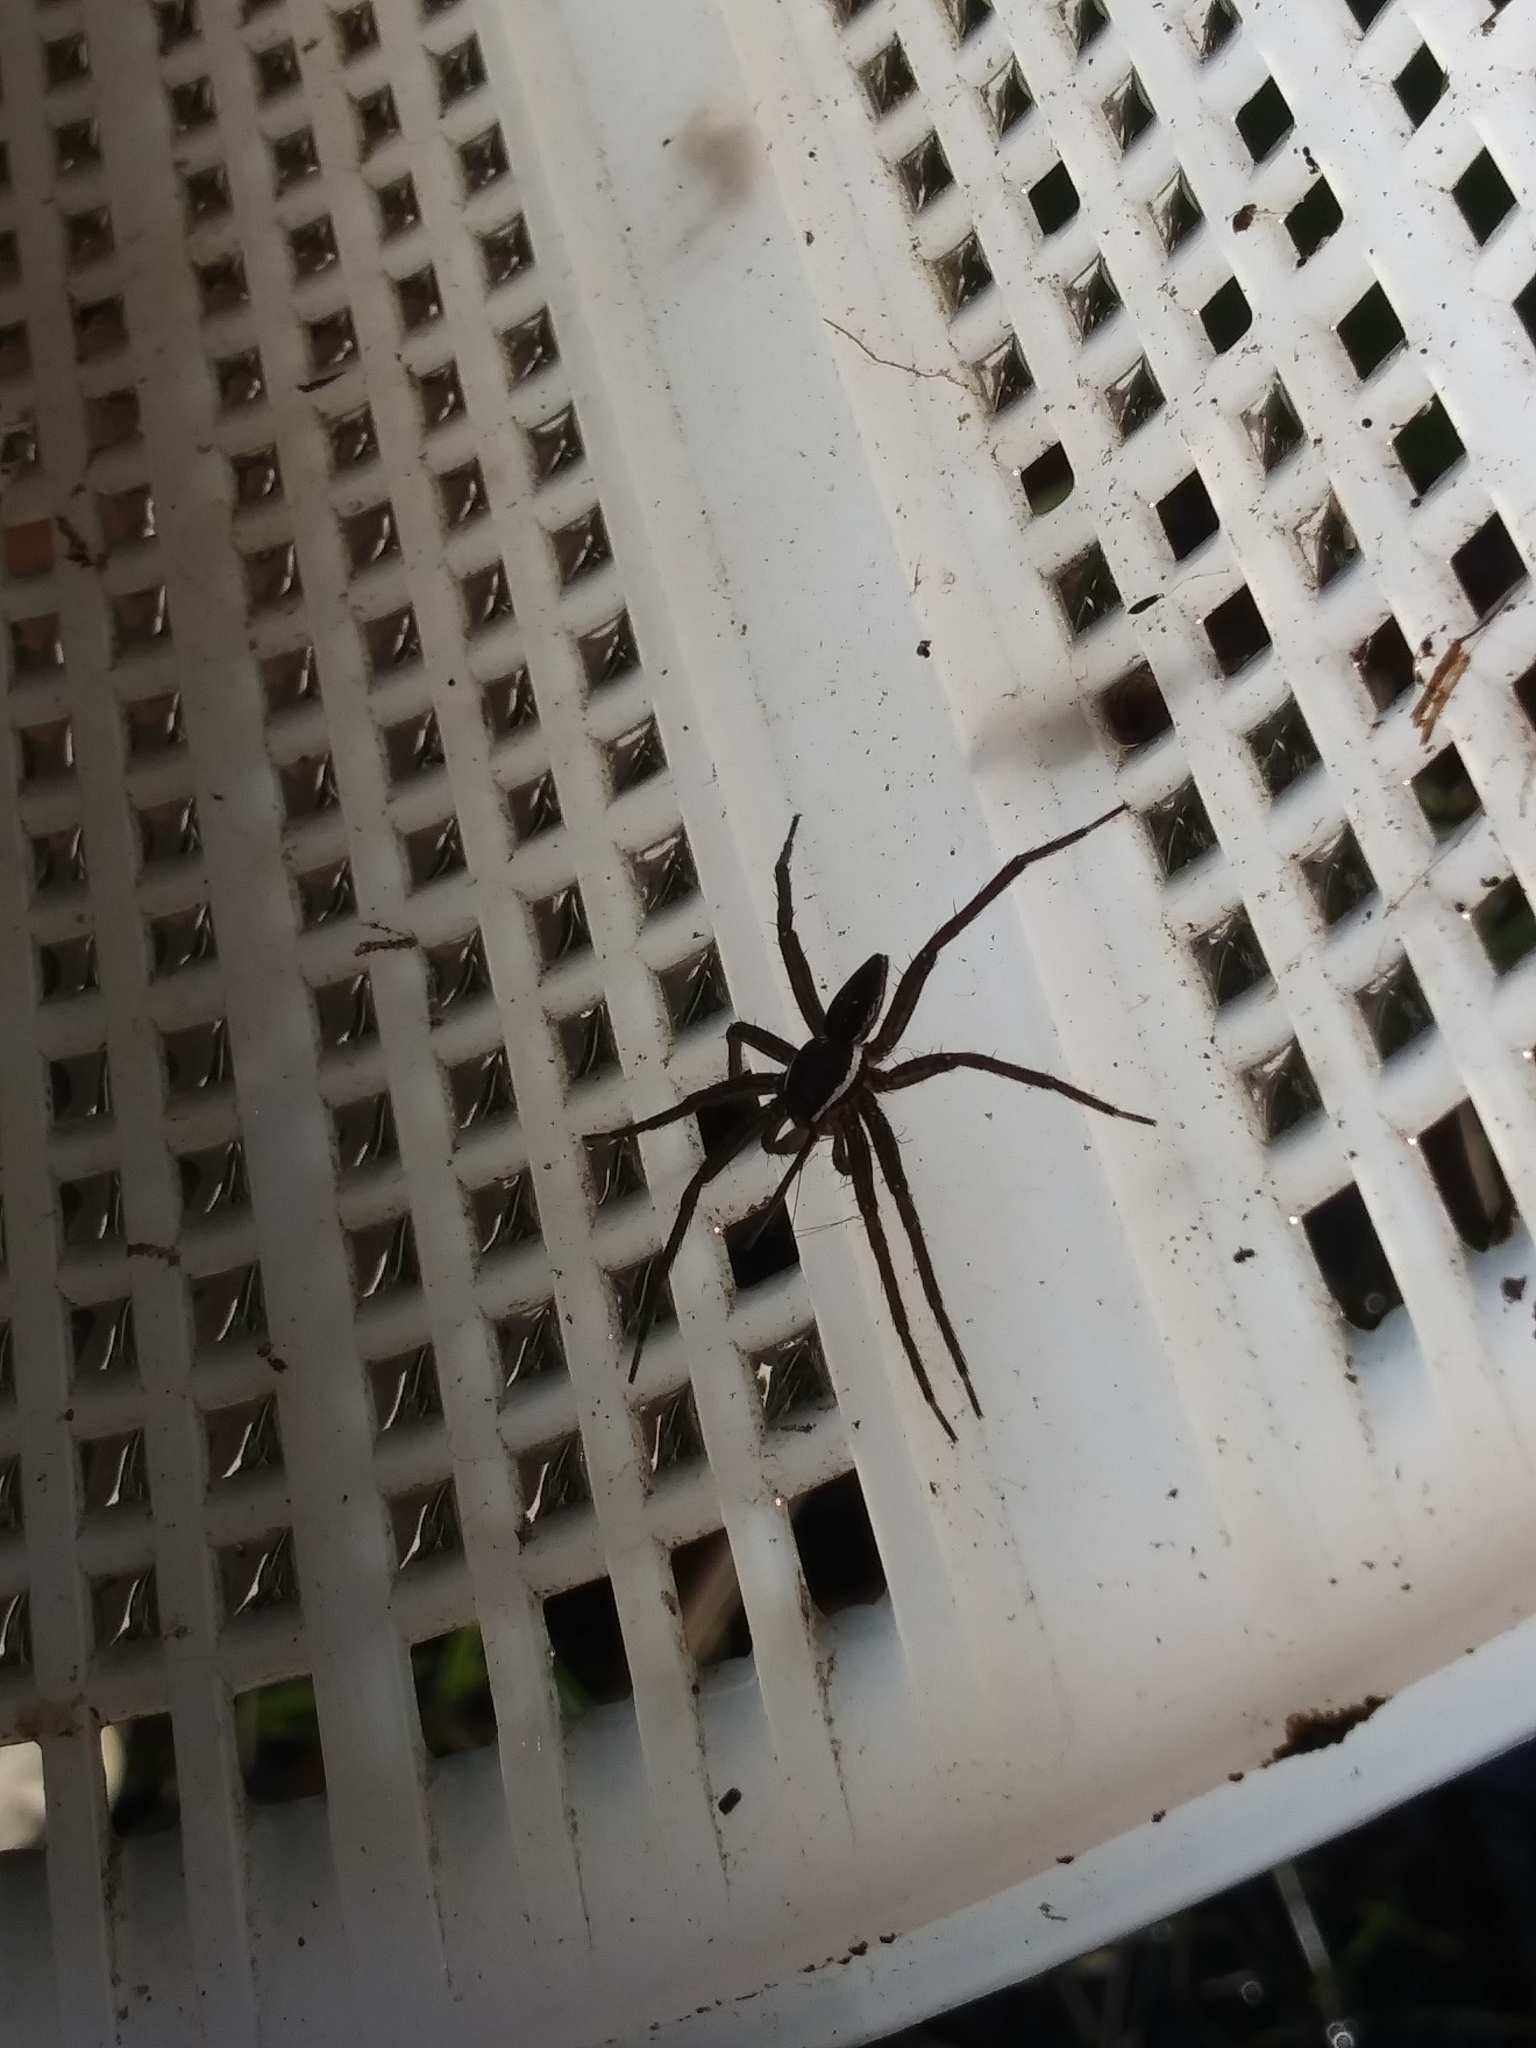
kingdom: Animalia
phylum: Arthropoda
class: Arachnida
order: Araneae
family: Pisauridae
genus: Dolomedes
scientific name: Dolomedes triton
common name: Six-spotted fishing spider
